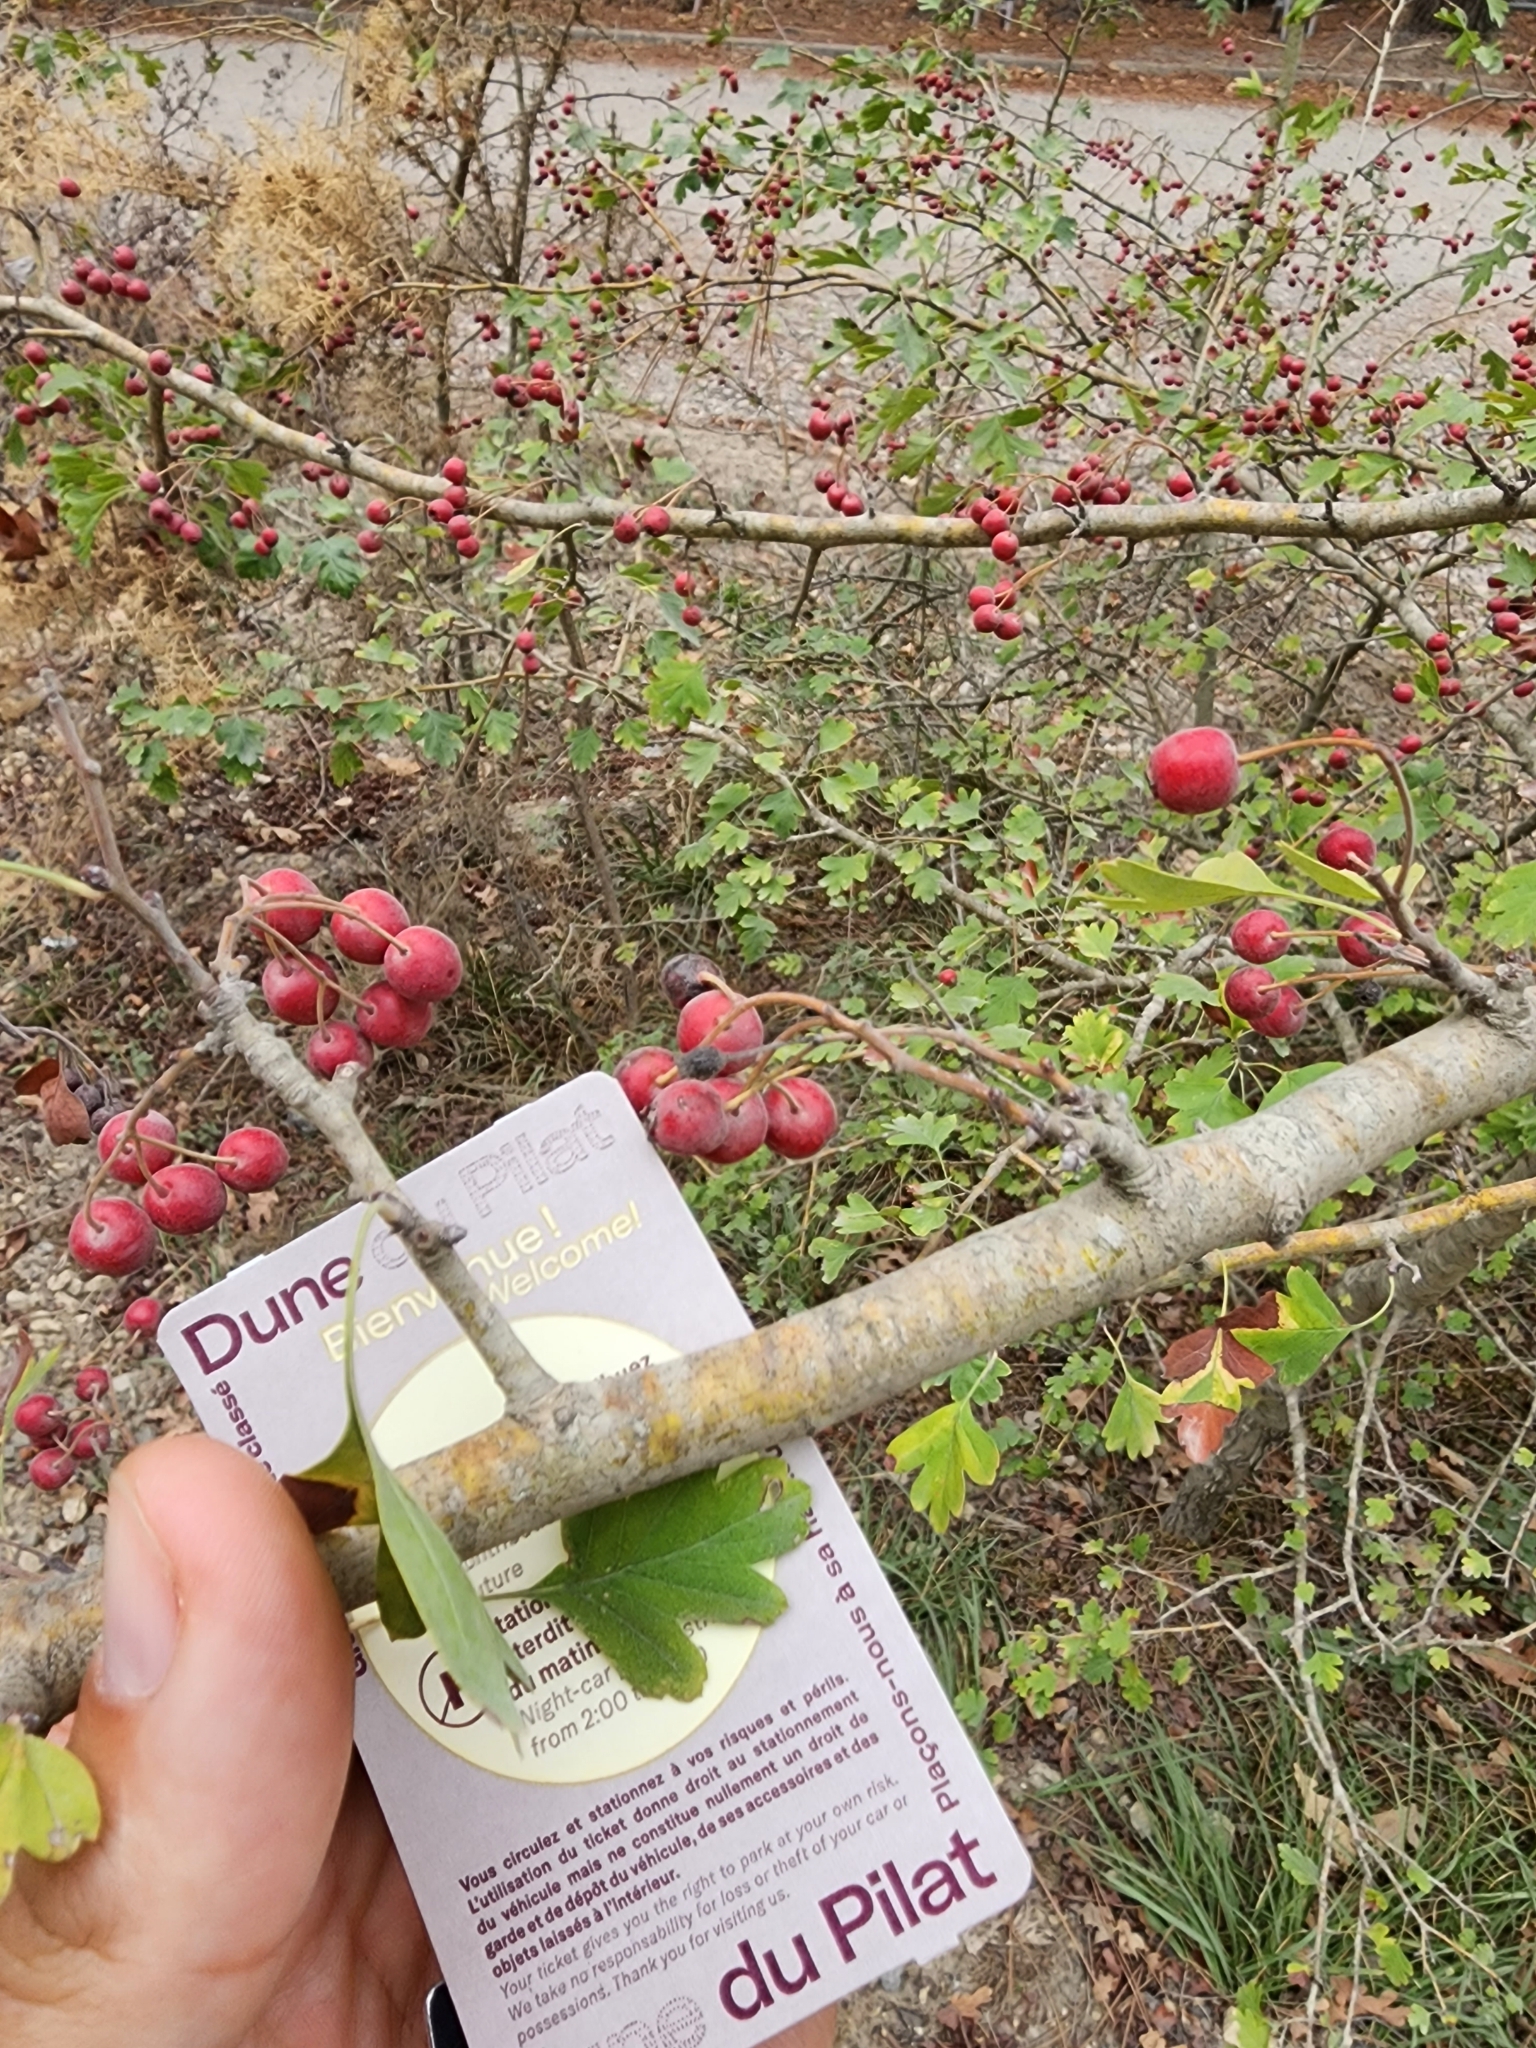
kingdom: Plantae
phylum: Tracheophyta
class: Magnoliopsida
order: Rosales
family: Rosaceae
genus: Crataegus
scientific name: Crataegus monogyna
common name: Hawthorn
